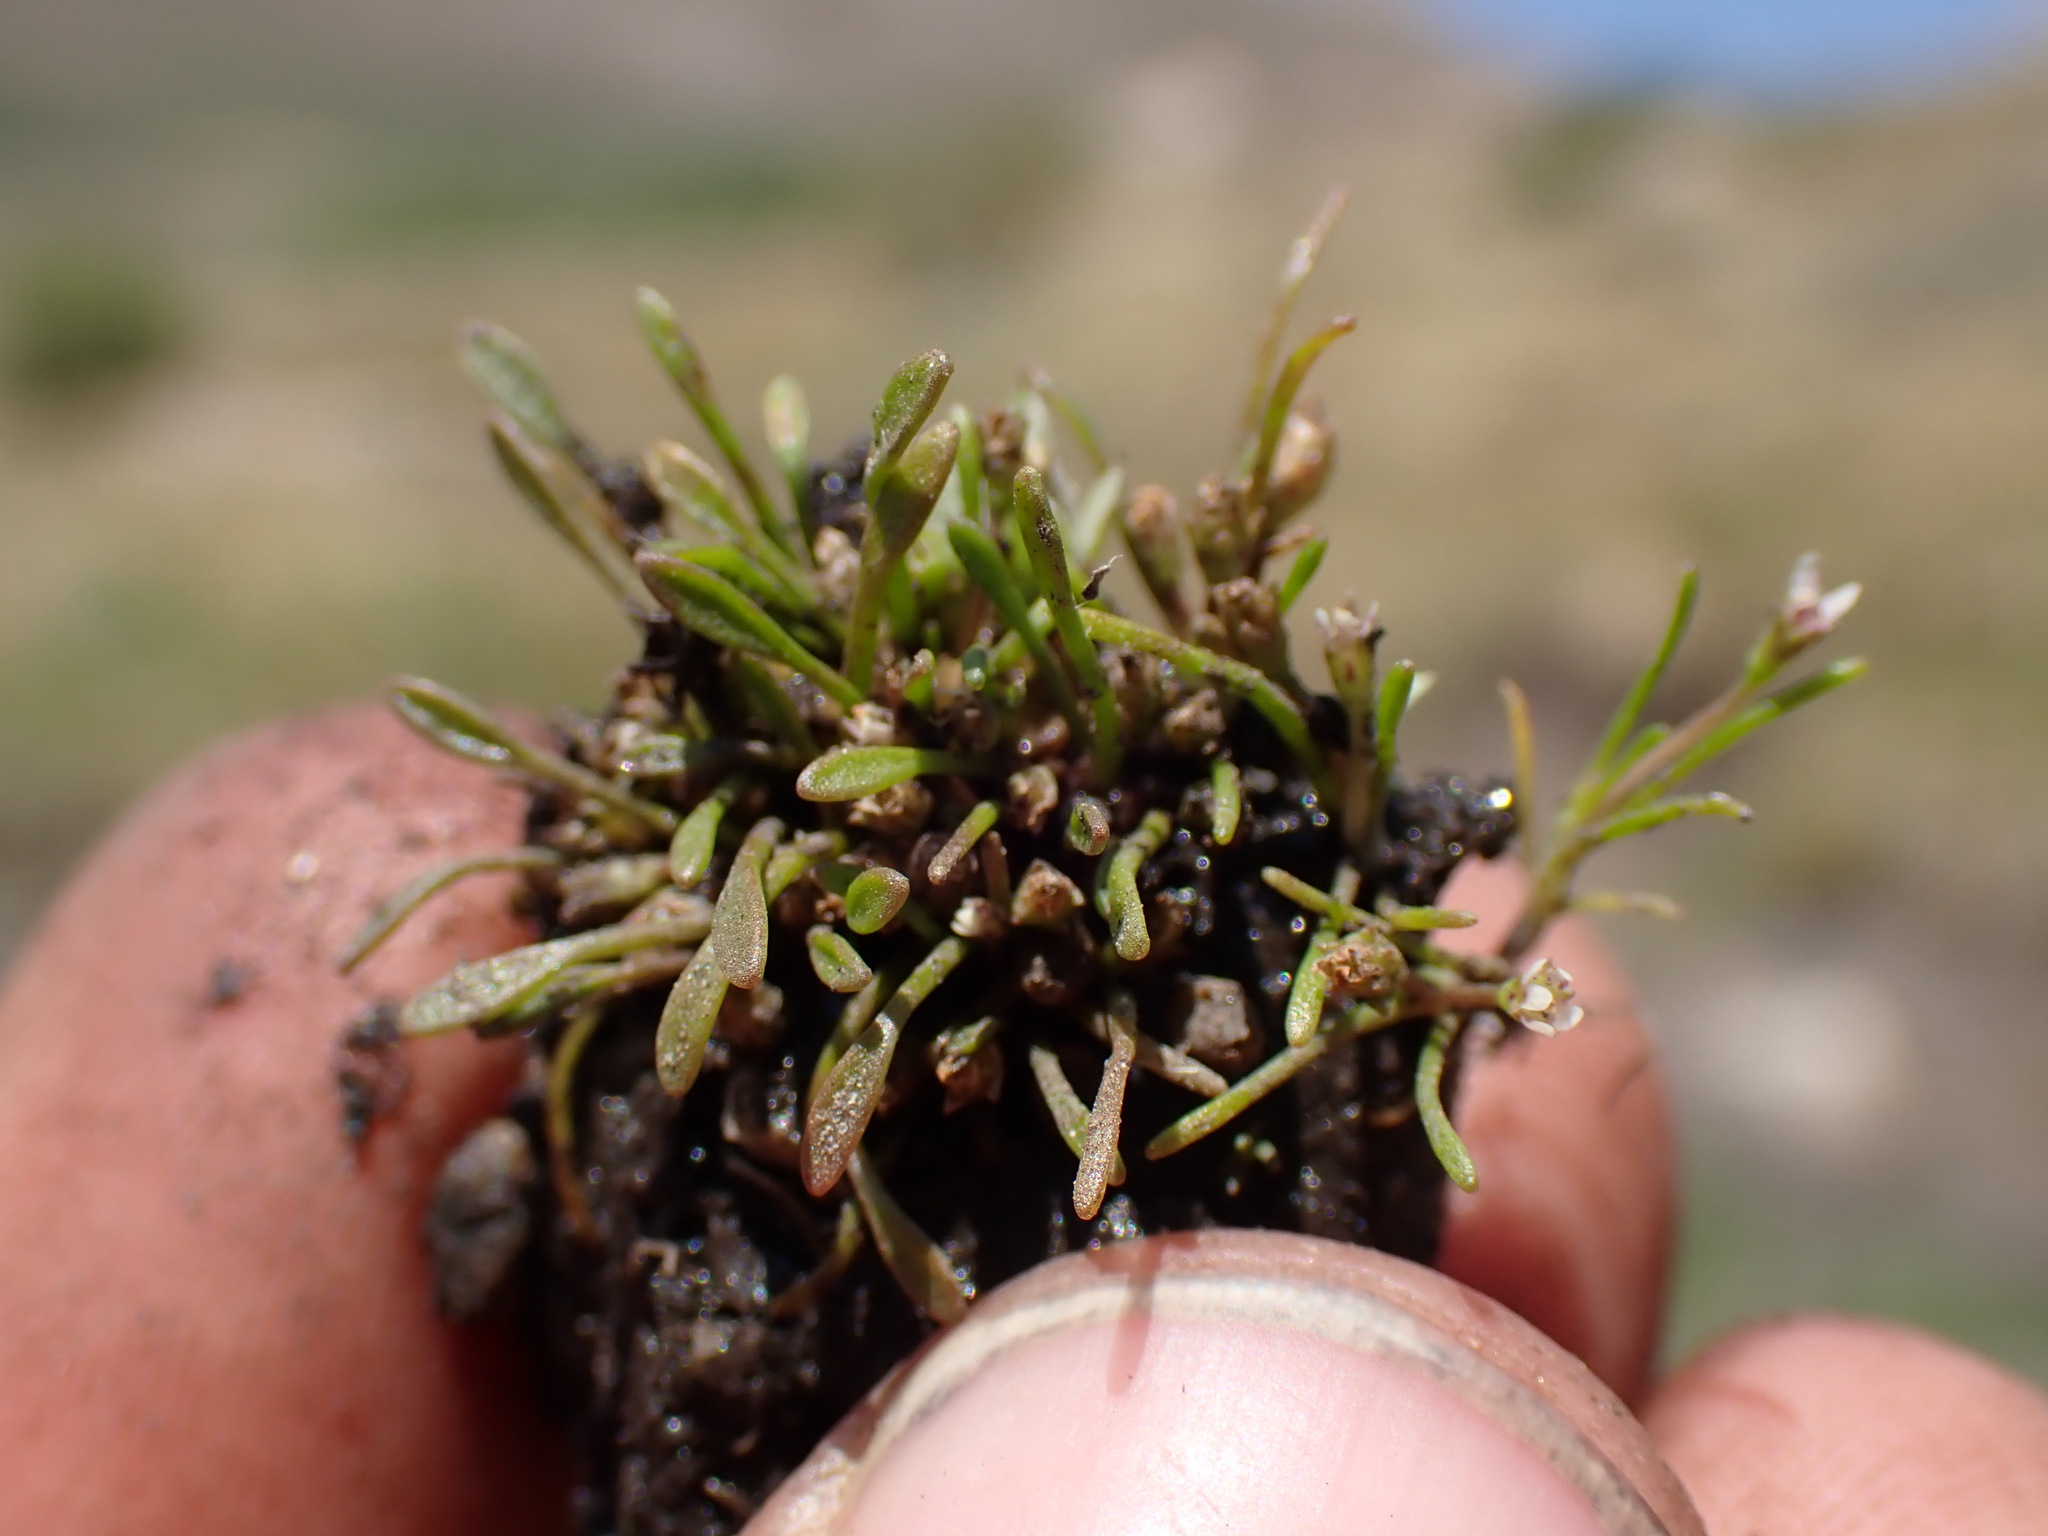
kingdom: Plantae
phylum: Tracheophyta
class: Magnoliopsida
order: Lamiales
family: Scrophulariaceae
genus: Limosella
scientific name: Limosella aquatica
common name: Mudwort
